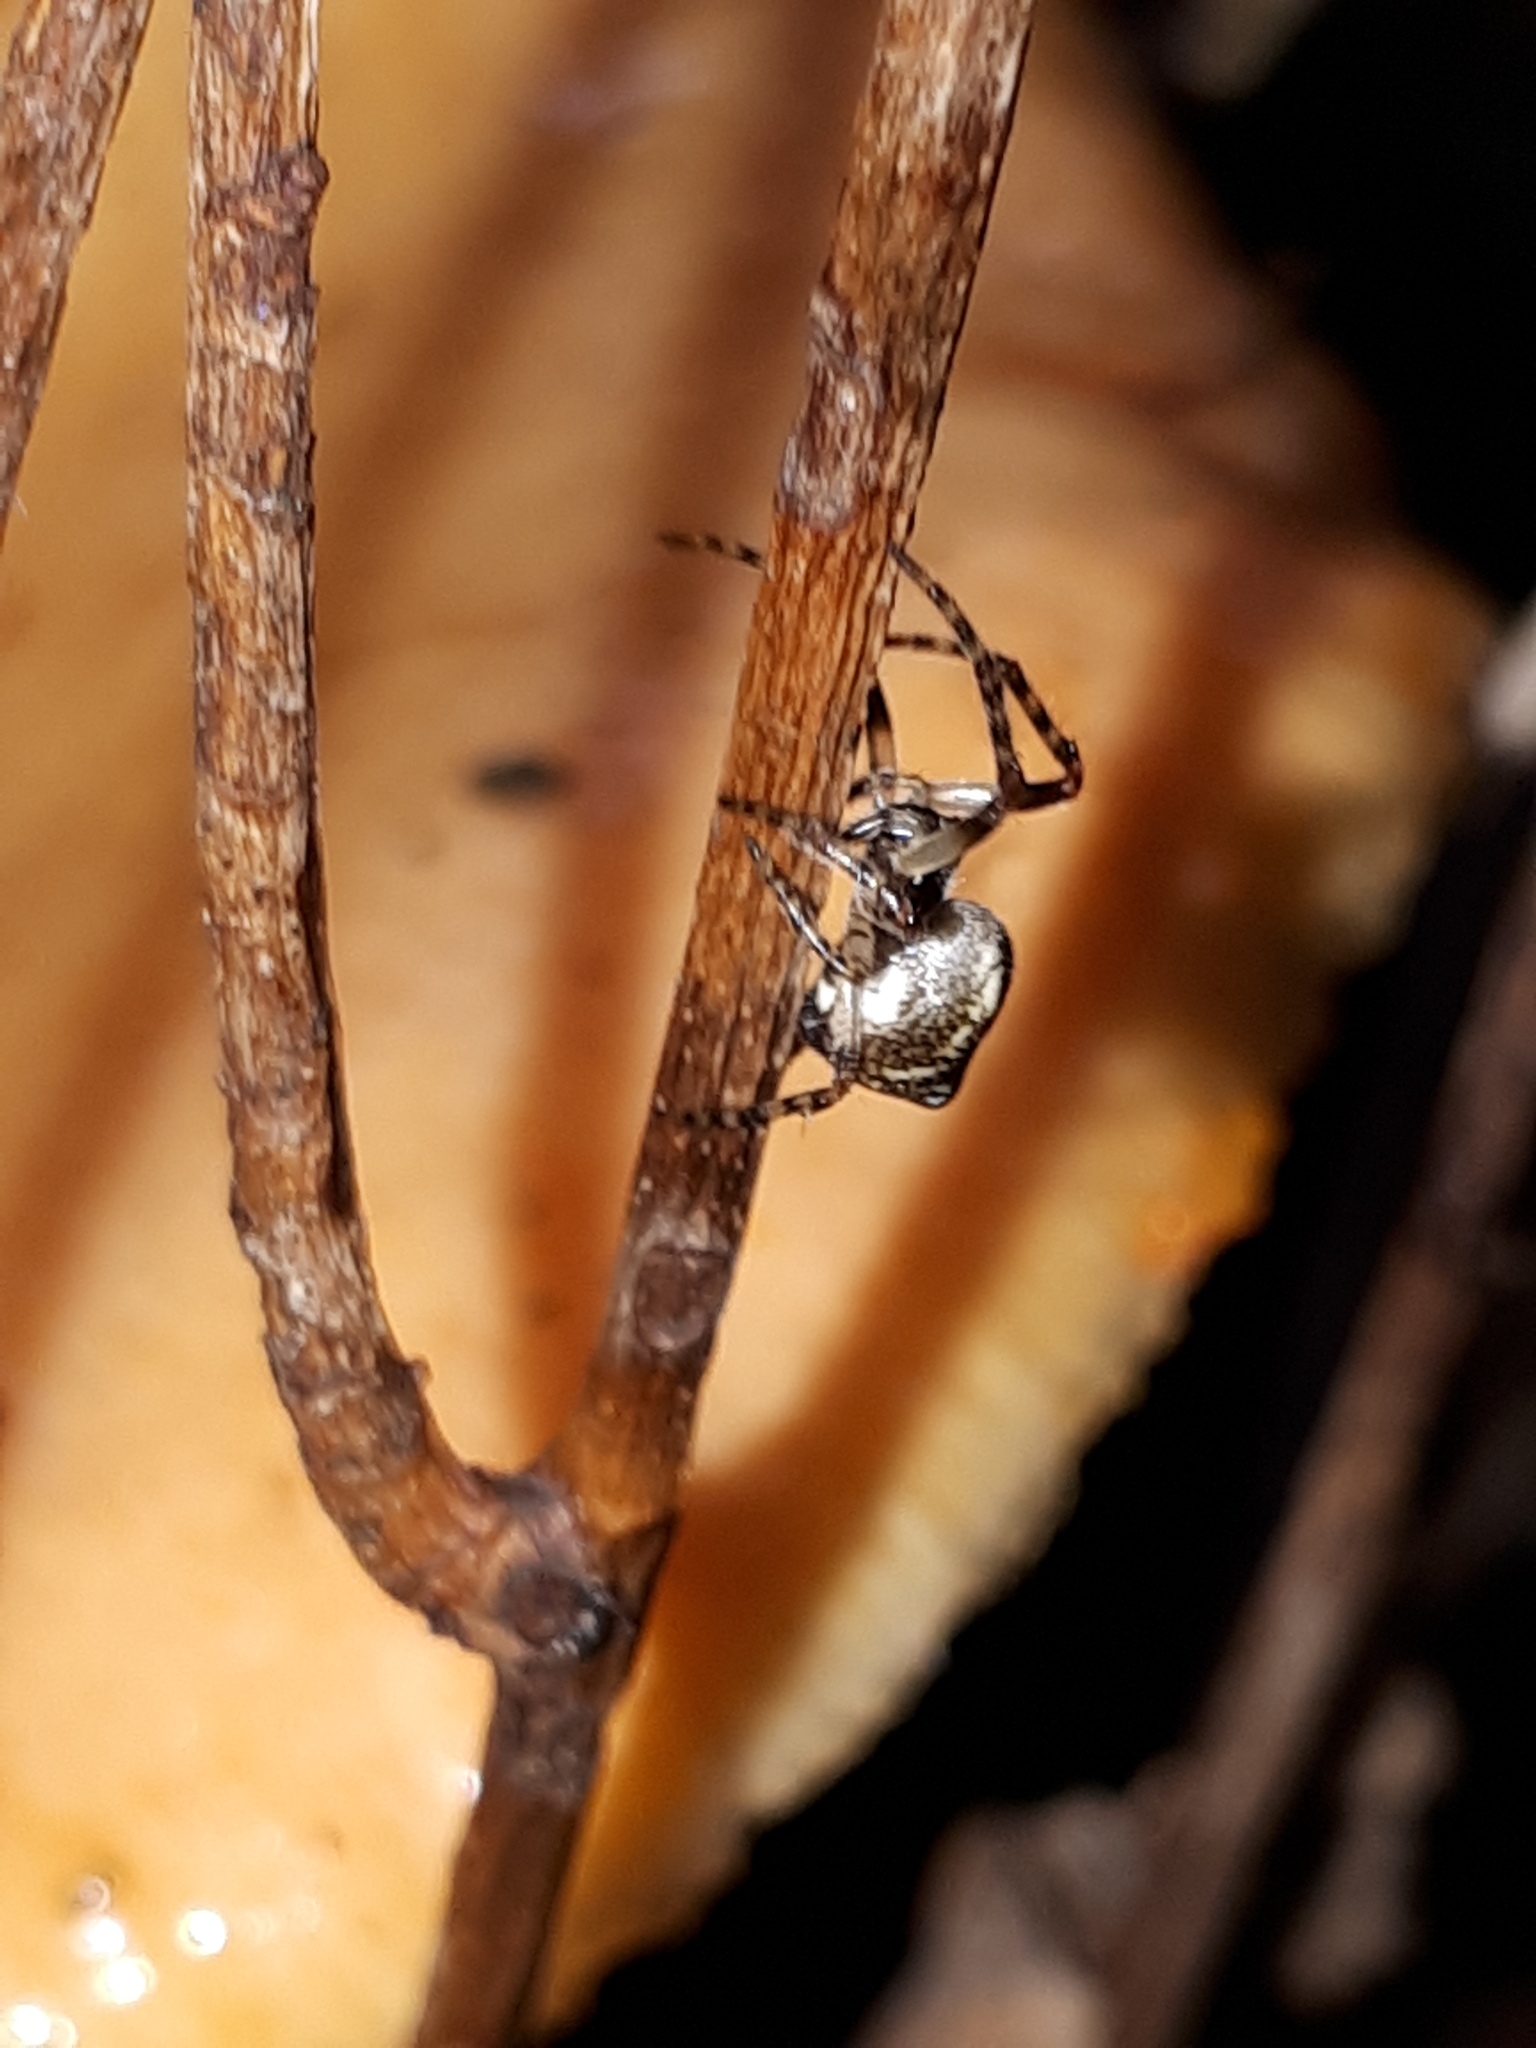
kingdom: Animalia
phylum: Arthropoda
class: Arachnida
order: Araneae
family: Araneidae
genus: Cyclosa
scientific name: Cyclosa conica
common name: Conical trashline orbweaver
